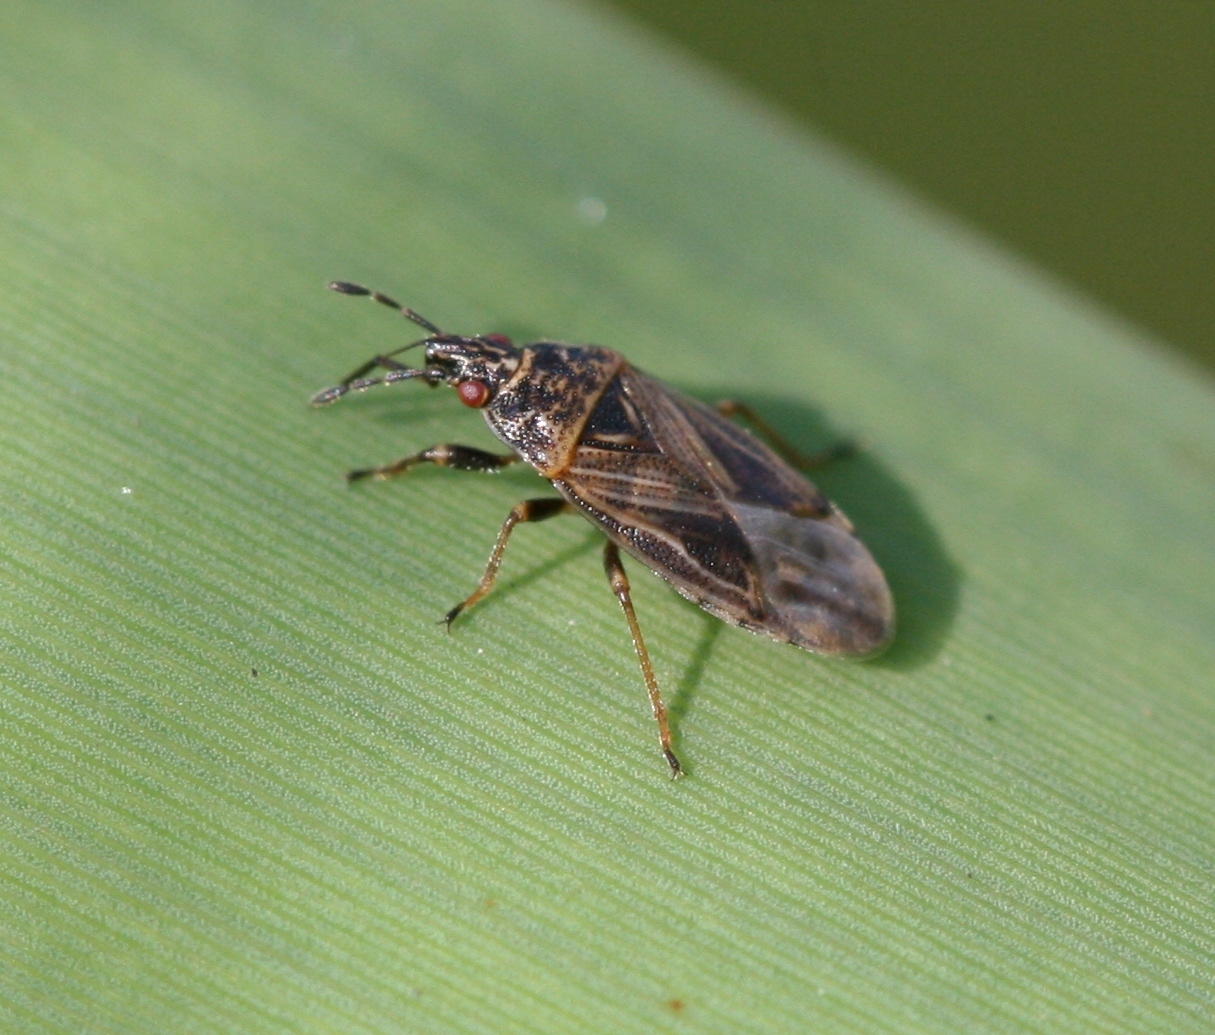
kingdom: Animalia
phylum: Arthropoda
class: Insecta
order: Hemiptera
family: Artheneidae
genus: Chilacis
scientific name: Chilacis typhae
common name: Cattail bug
